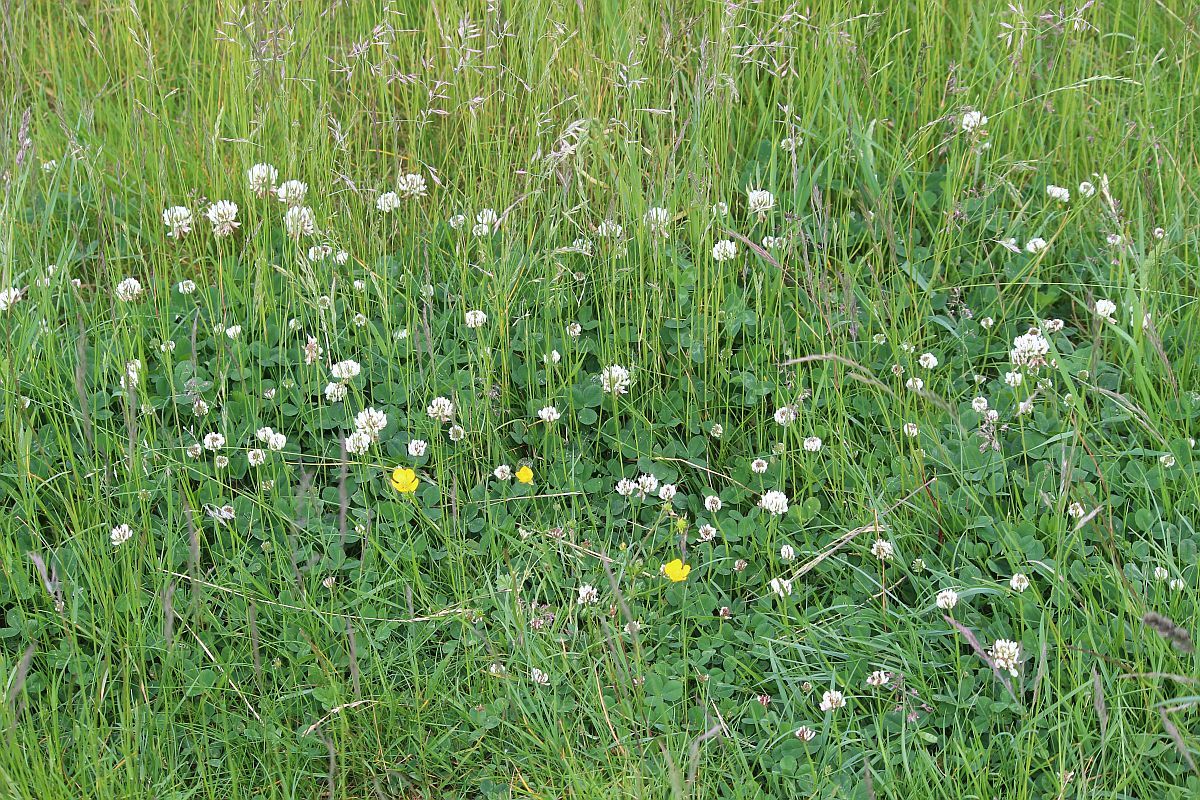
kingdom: Plantae
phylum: Tracheophyta
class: Magnoliopsida
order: Fabales
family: Fabaceae
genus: Trifolium
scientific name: Trifolium repens
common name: White clover
